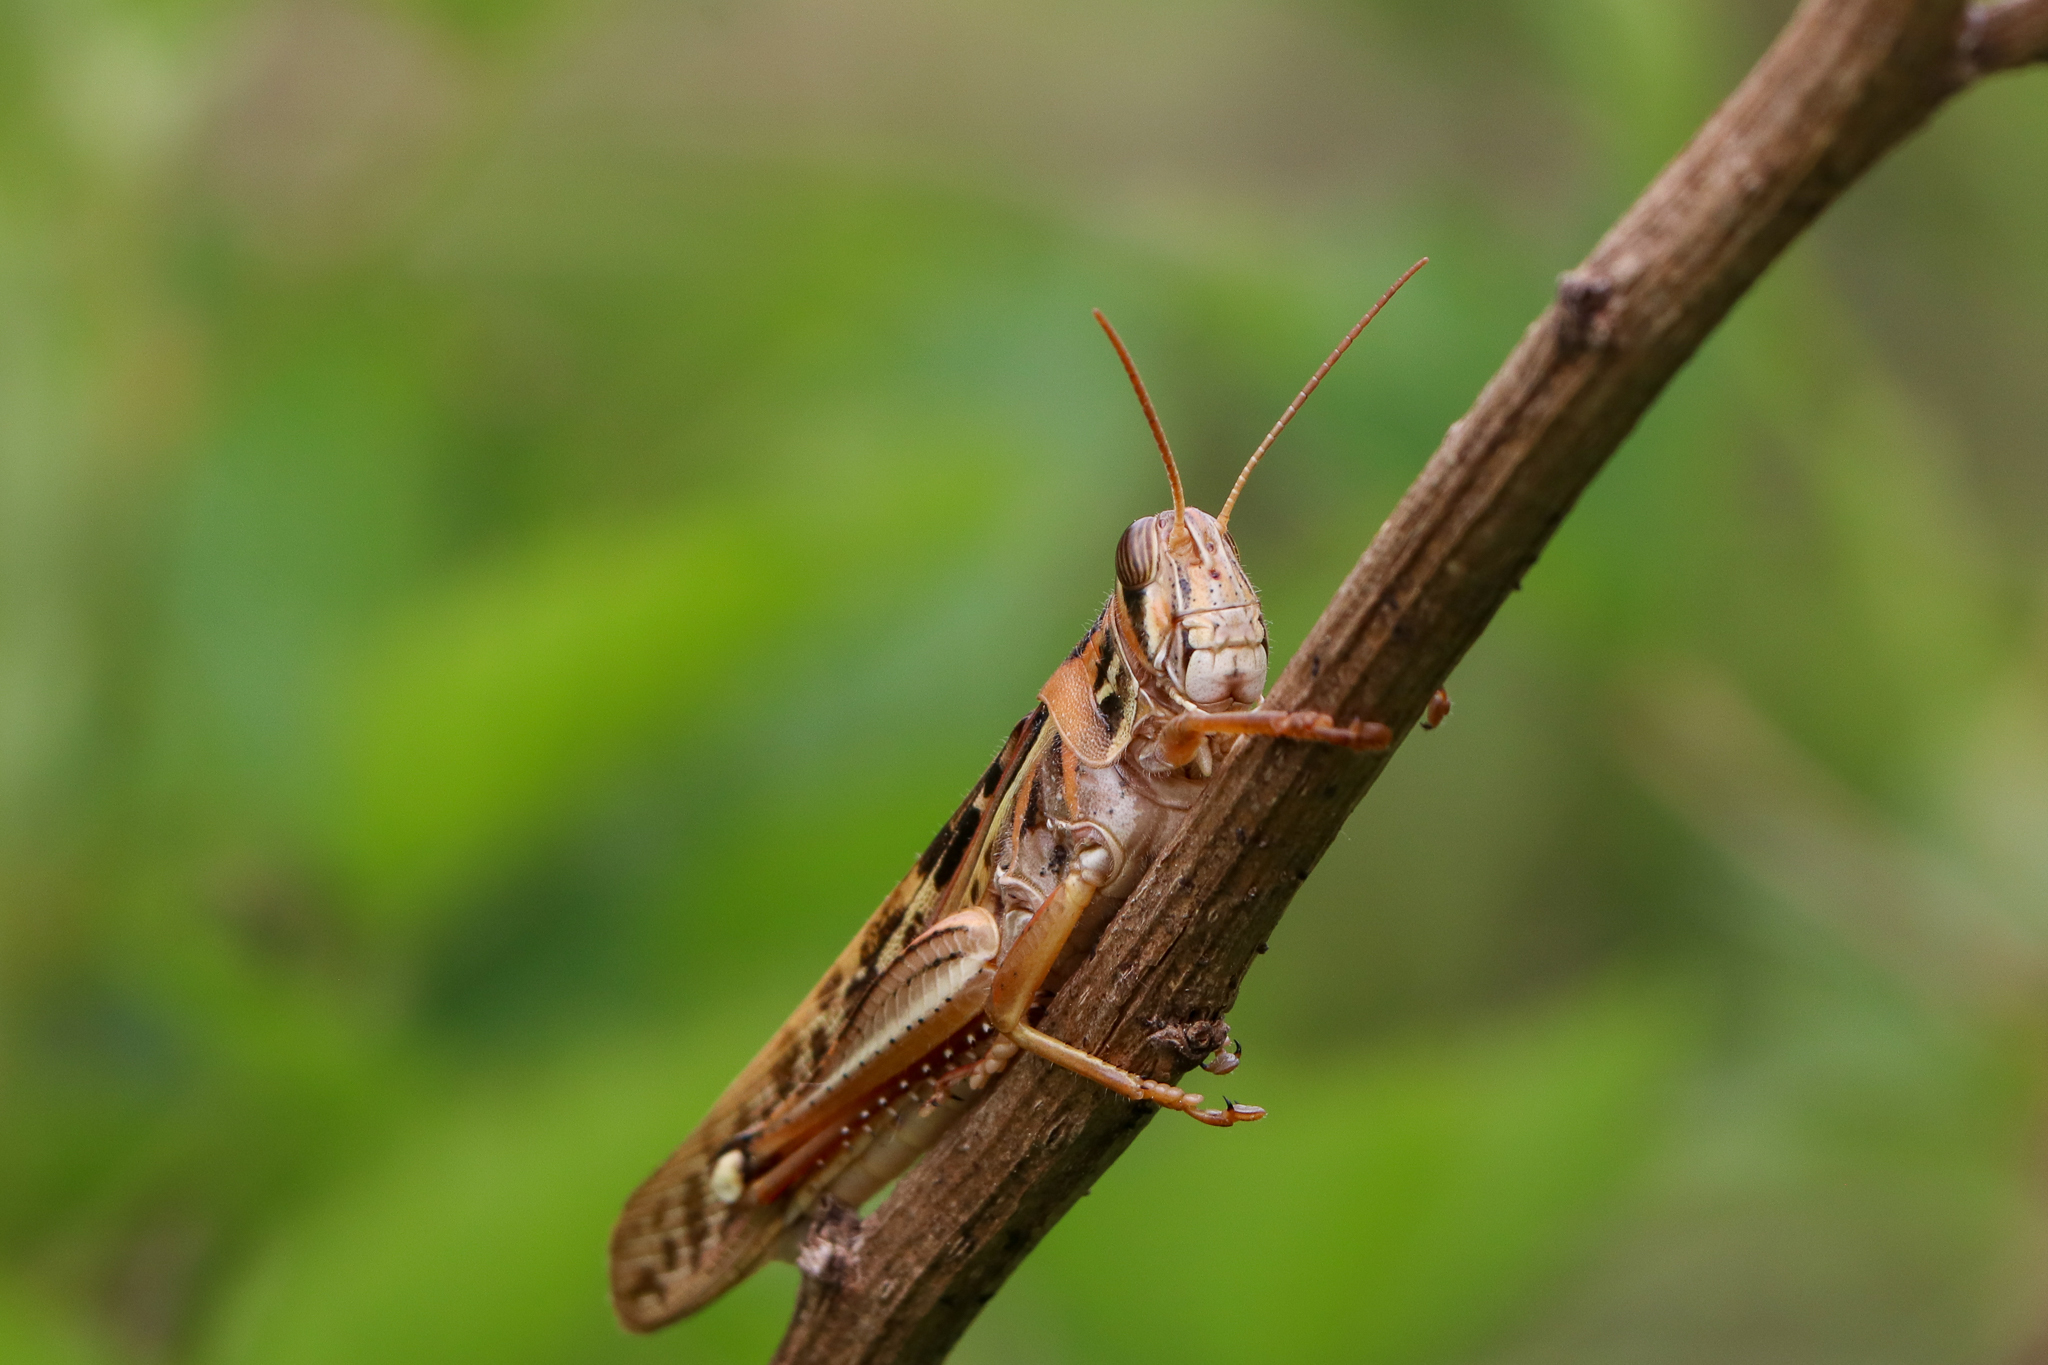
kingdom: Animalia
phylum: Arthropoda
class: Insecta
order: Orthoptera
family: Acrididae
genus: Schistocerca
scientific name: Schistocerca americana
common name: American bird locust
